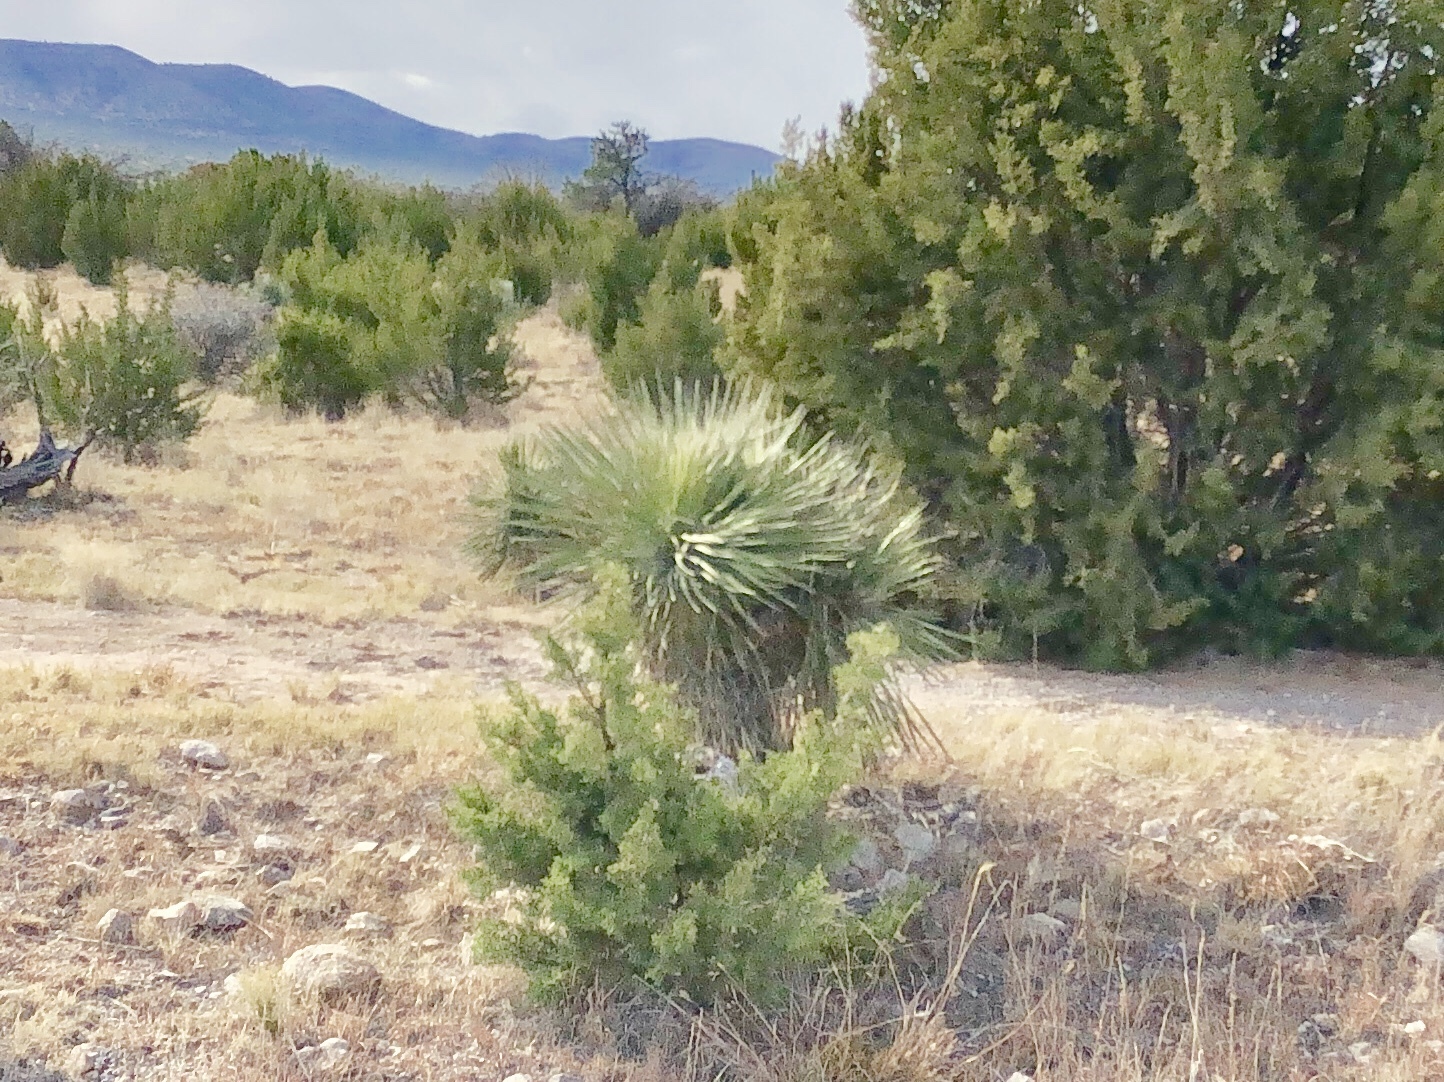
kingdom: Plantae
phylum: Tracheophyta
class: Liliopsida
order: Asparagales
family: Asparagaceae
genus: Yucca
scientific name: Yucca elata
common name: Palmella
